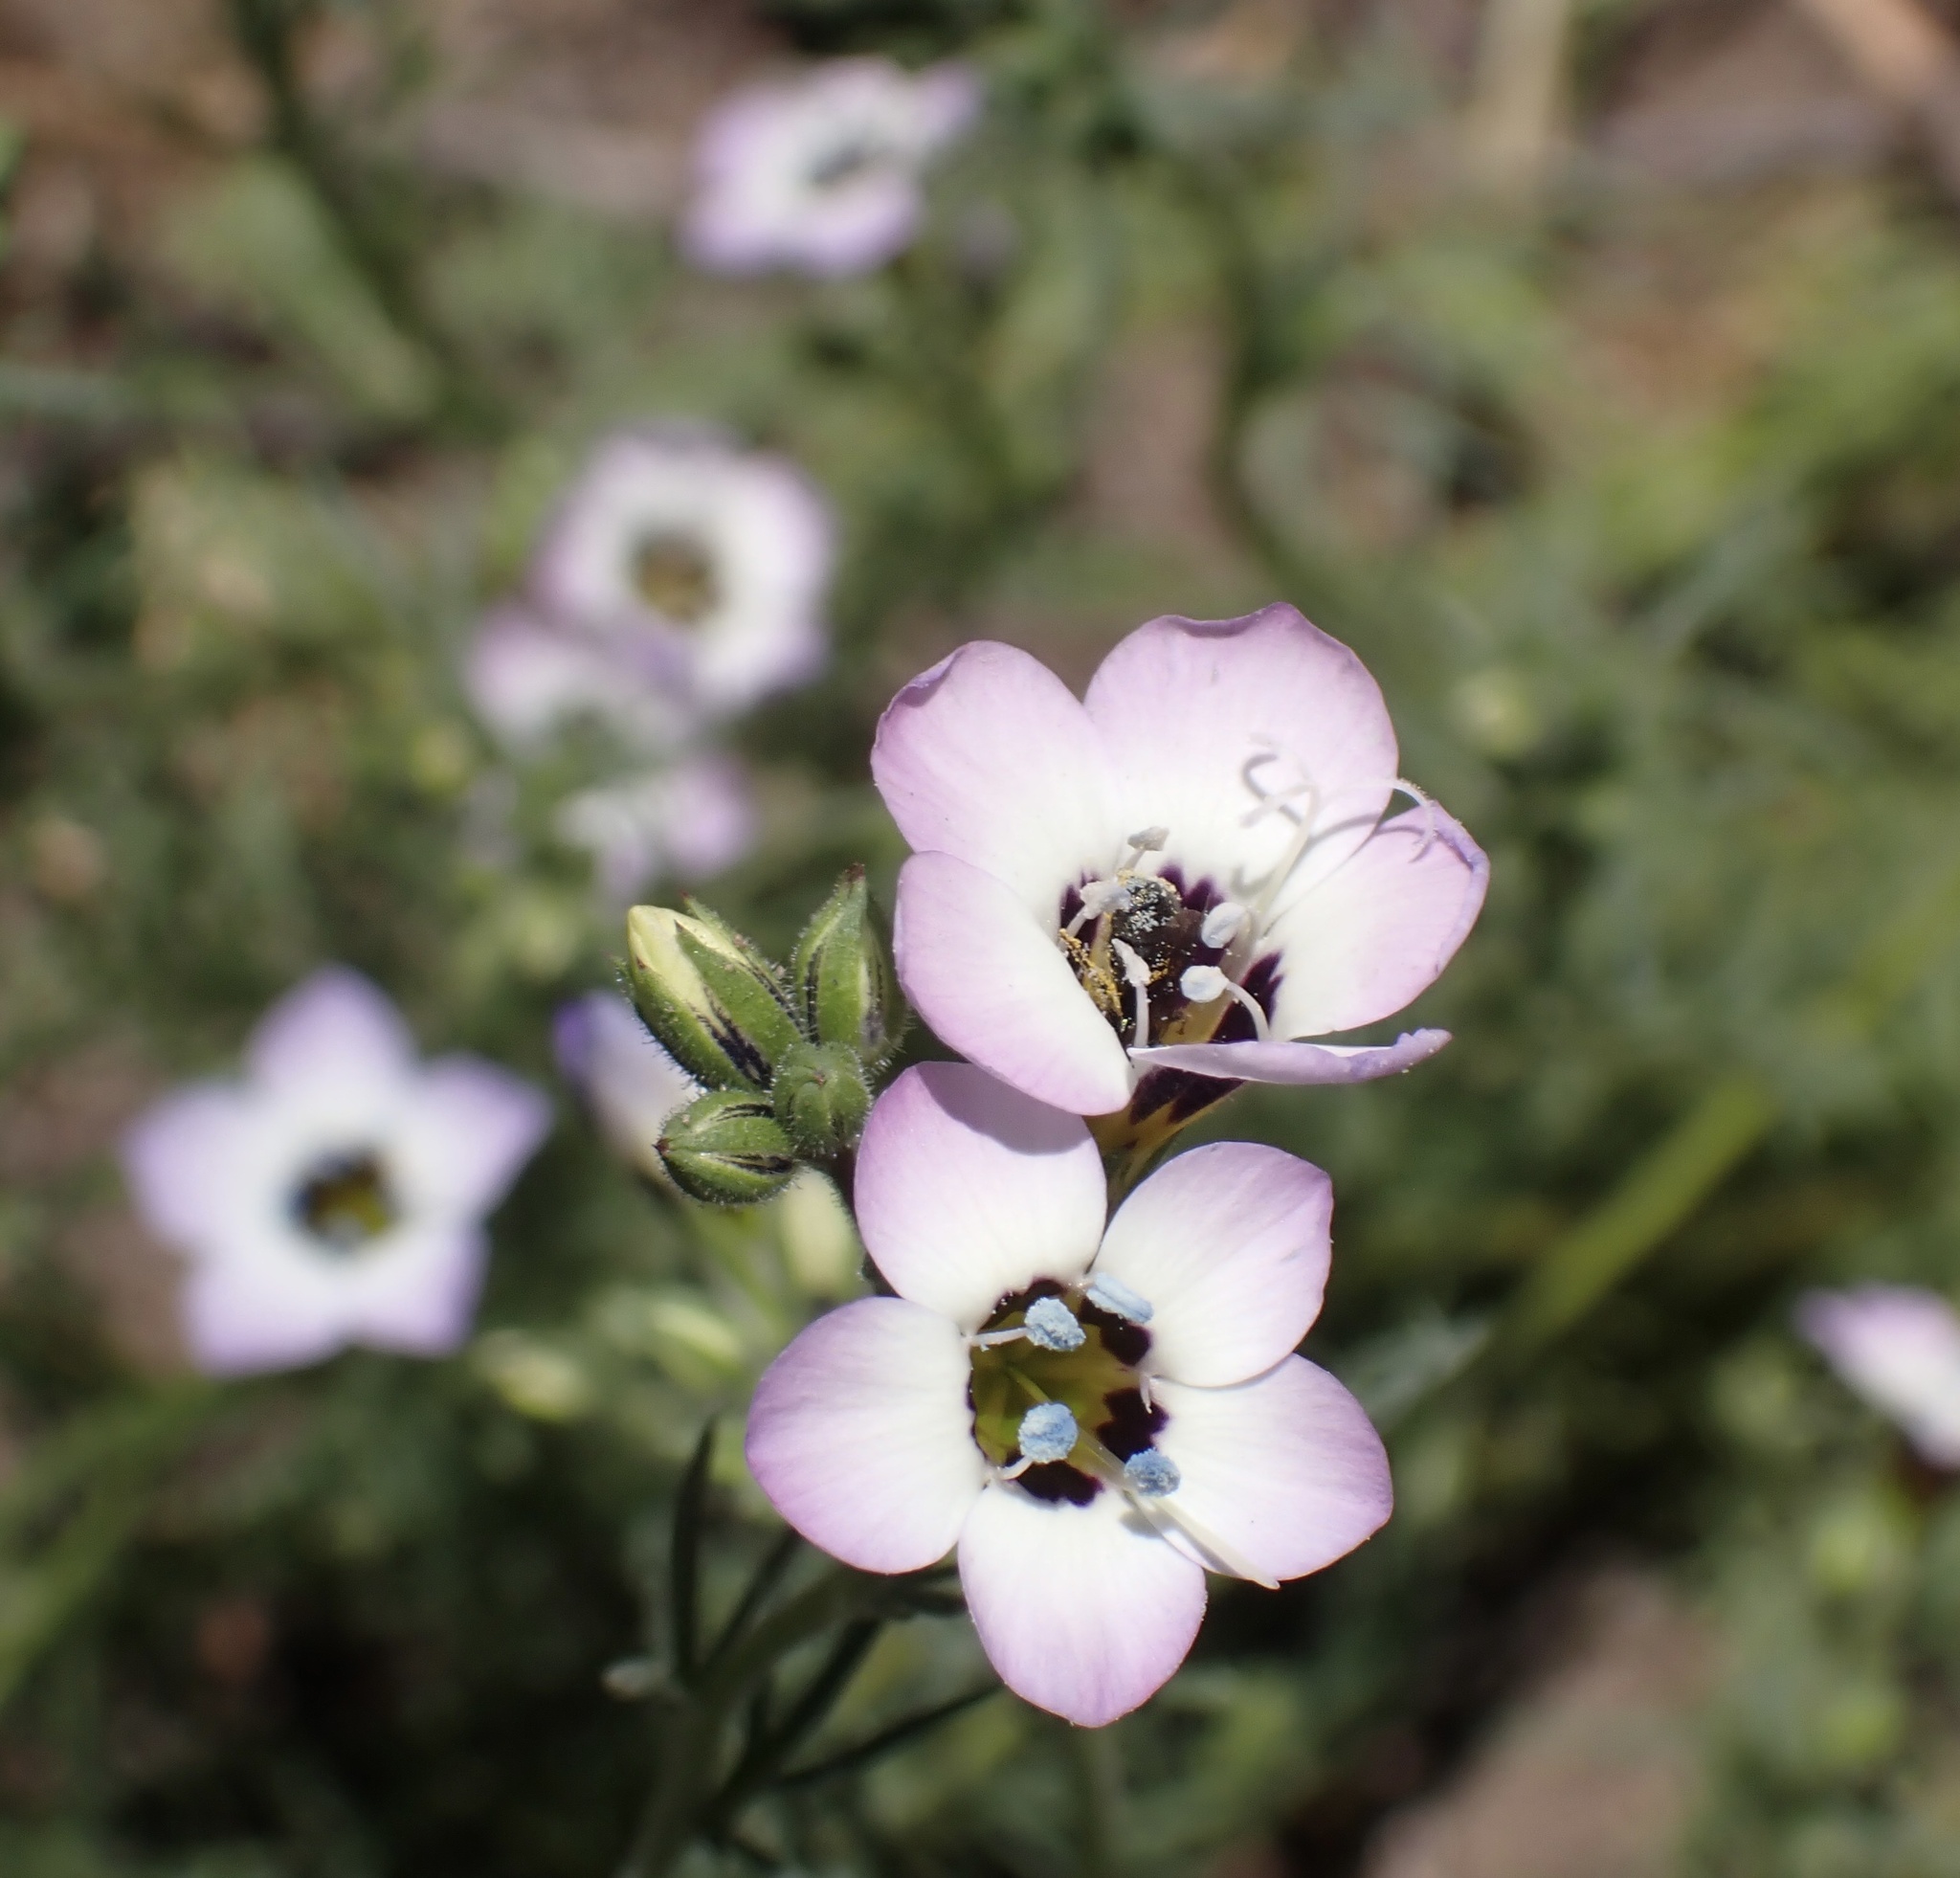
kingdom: Plantae
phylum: Tracheophyta
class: Magnoliopsida
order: Ericales
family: Polemoniaceae
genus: Gilia
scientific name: Gilia tricolor
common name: Bird's-eyes
